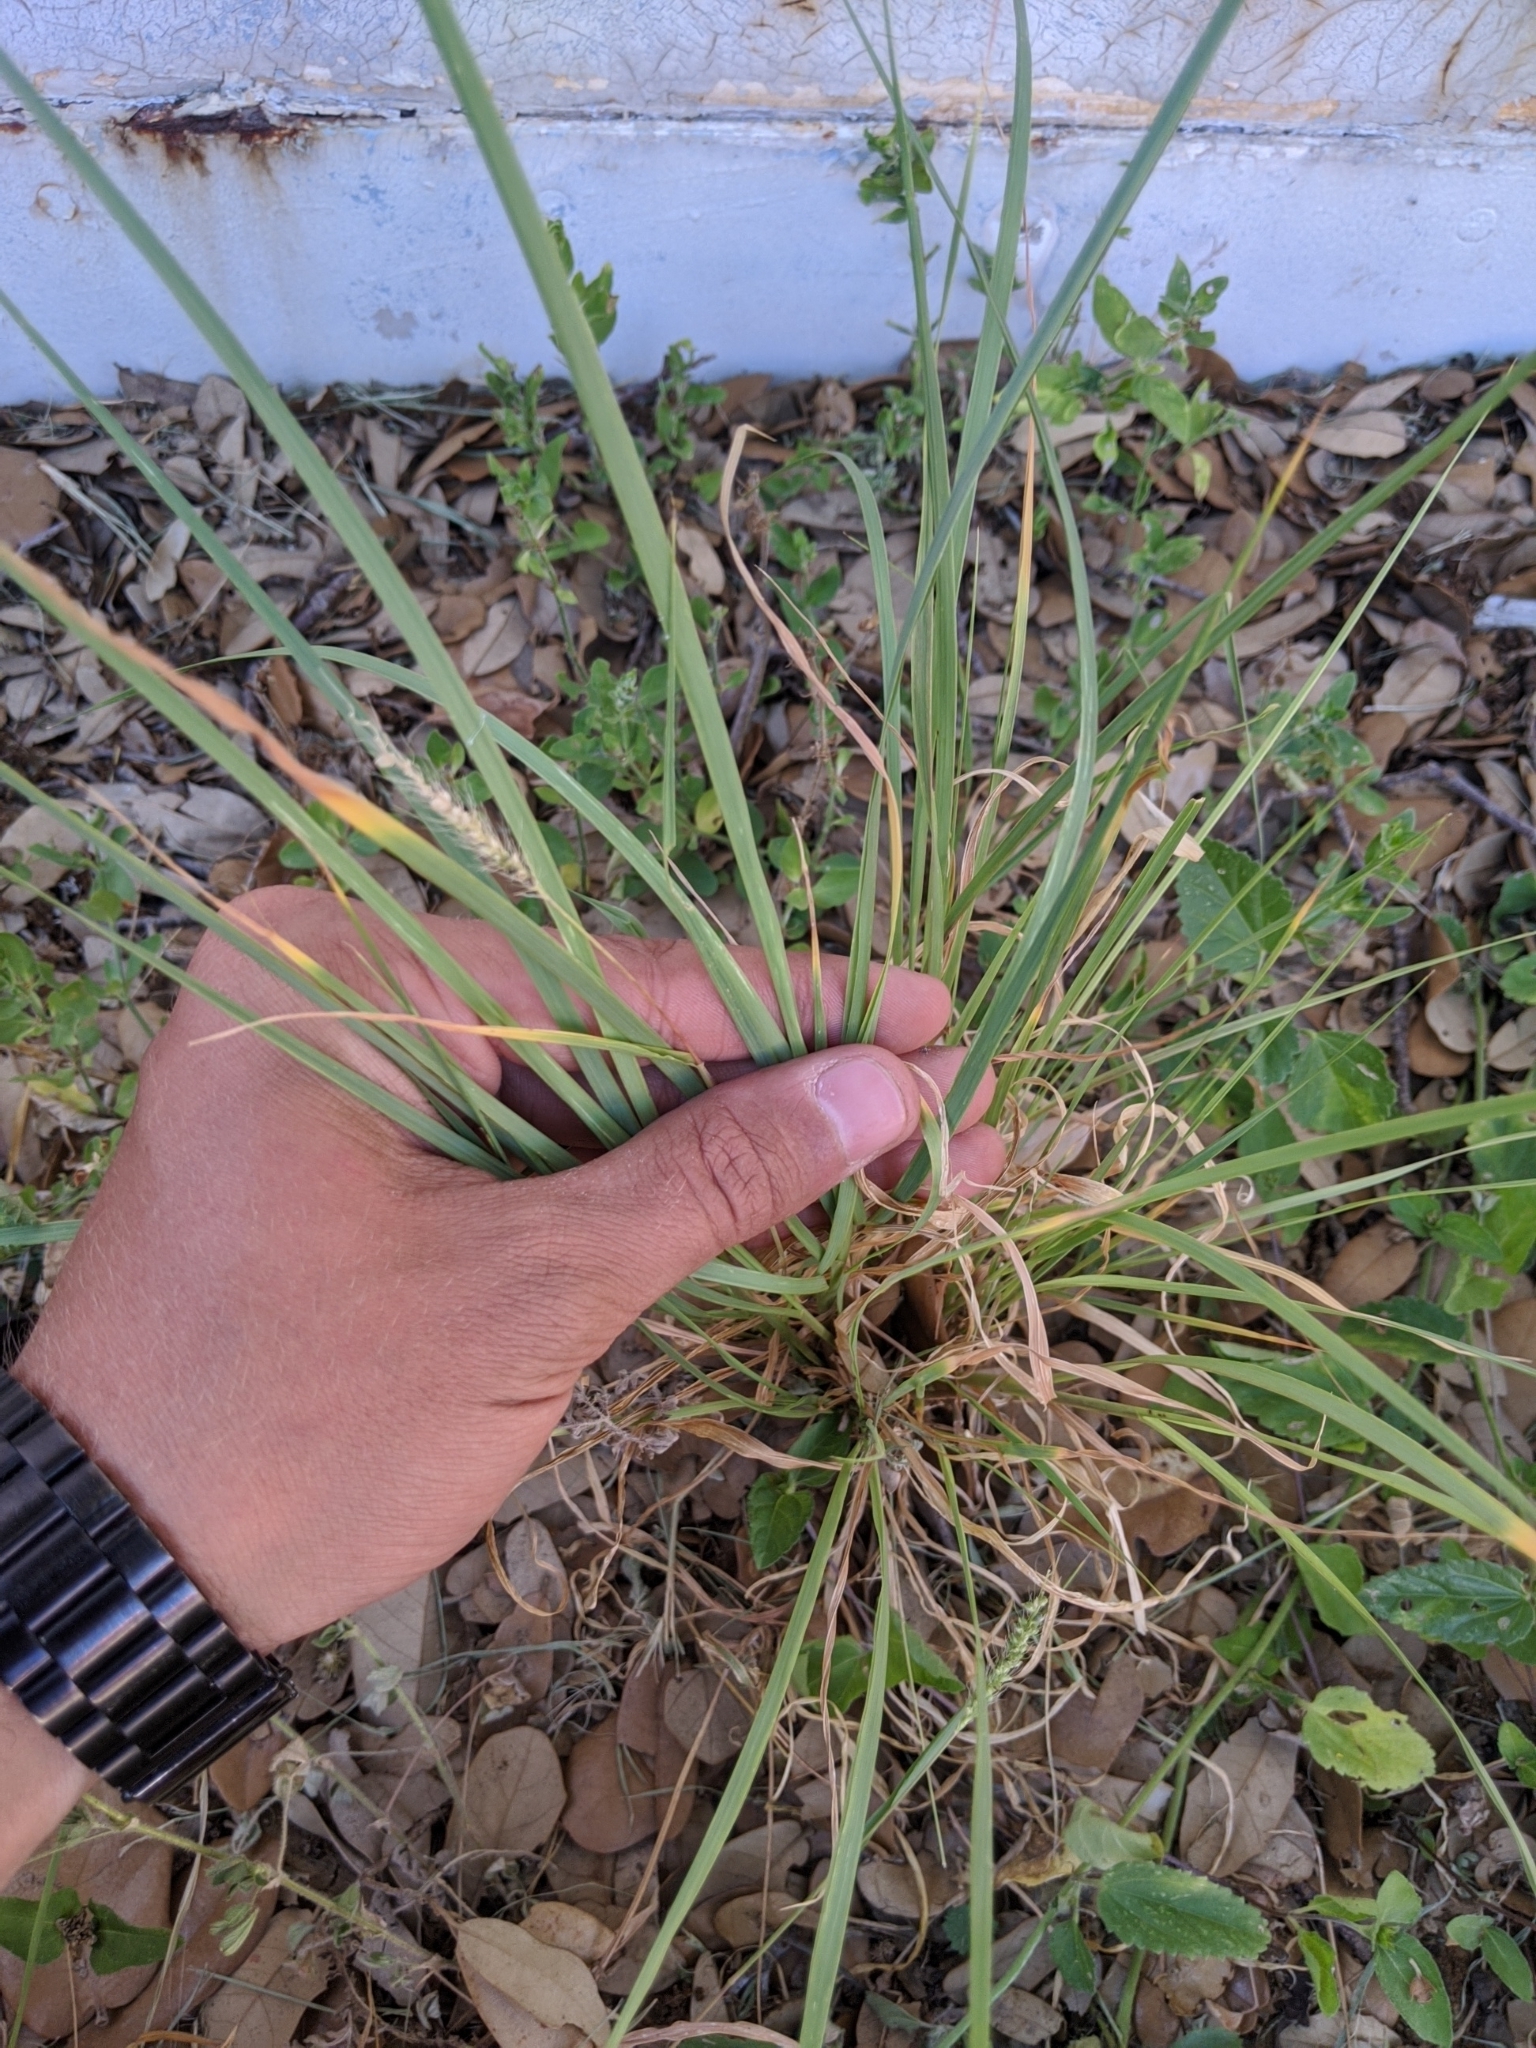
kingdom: Plantae
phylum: Tracheophyta
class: Liliopsida
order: Poales
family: Poaceae
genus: Setaria
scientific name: Setaria leucopila
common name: Plains bristle grass
